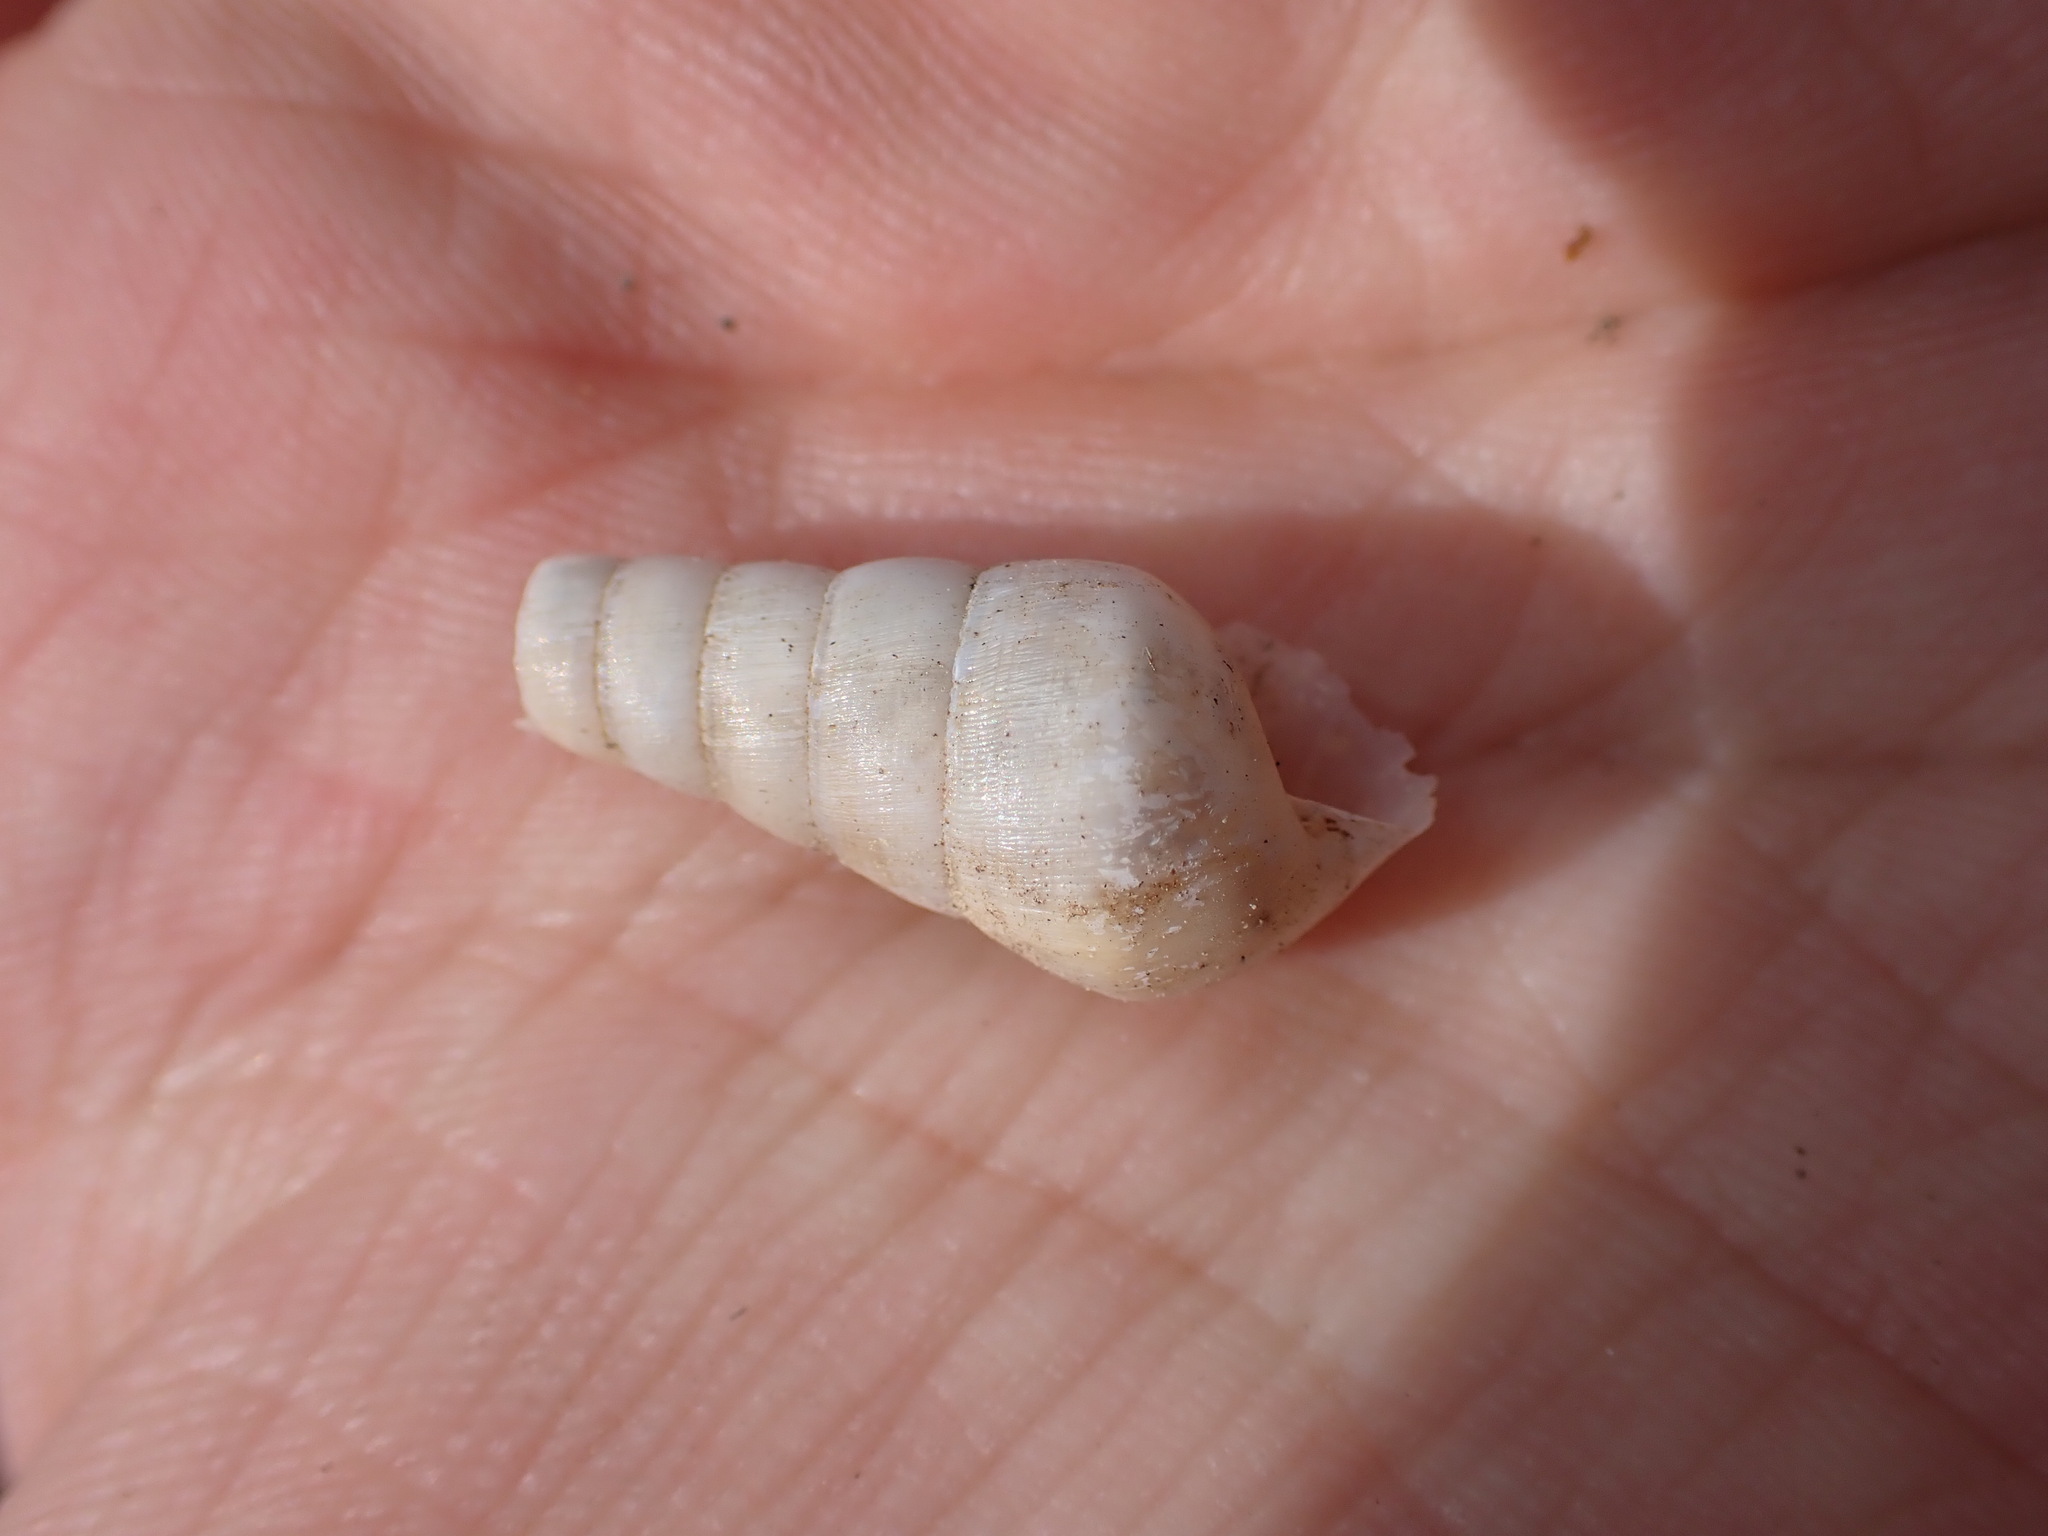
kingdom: Animalia
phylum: Mollusca
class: Gastropoda
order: Stylommatophora
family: Achatinidae
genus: Rumina
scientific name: Rumina decollata
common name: Decollate snail
